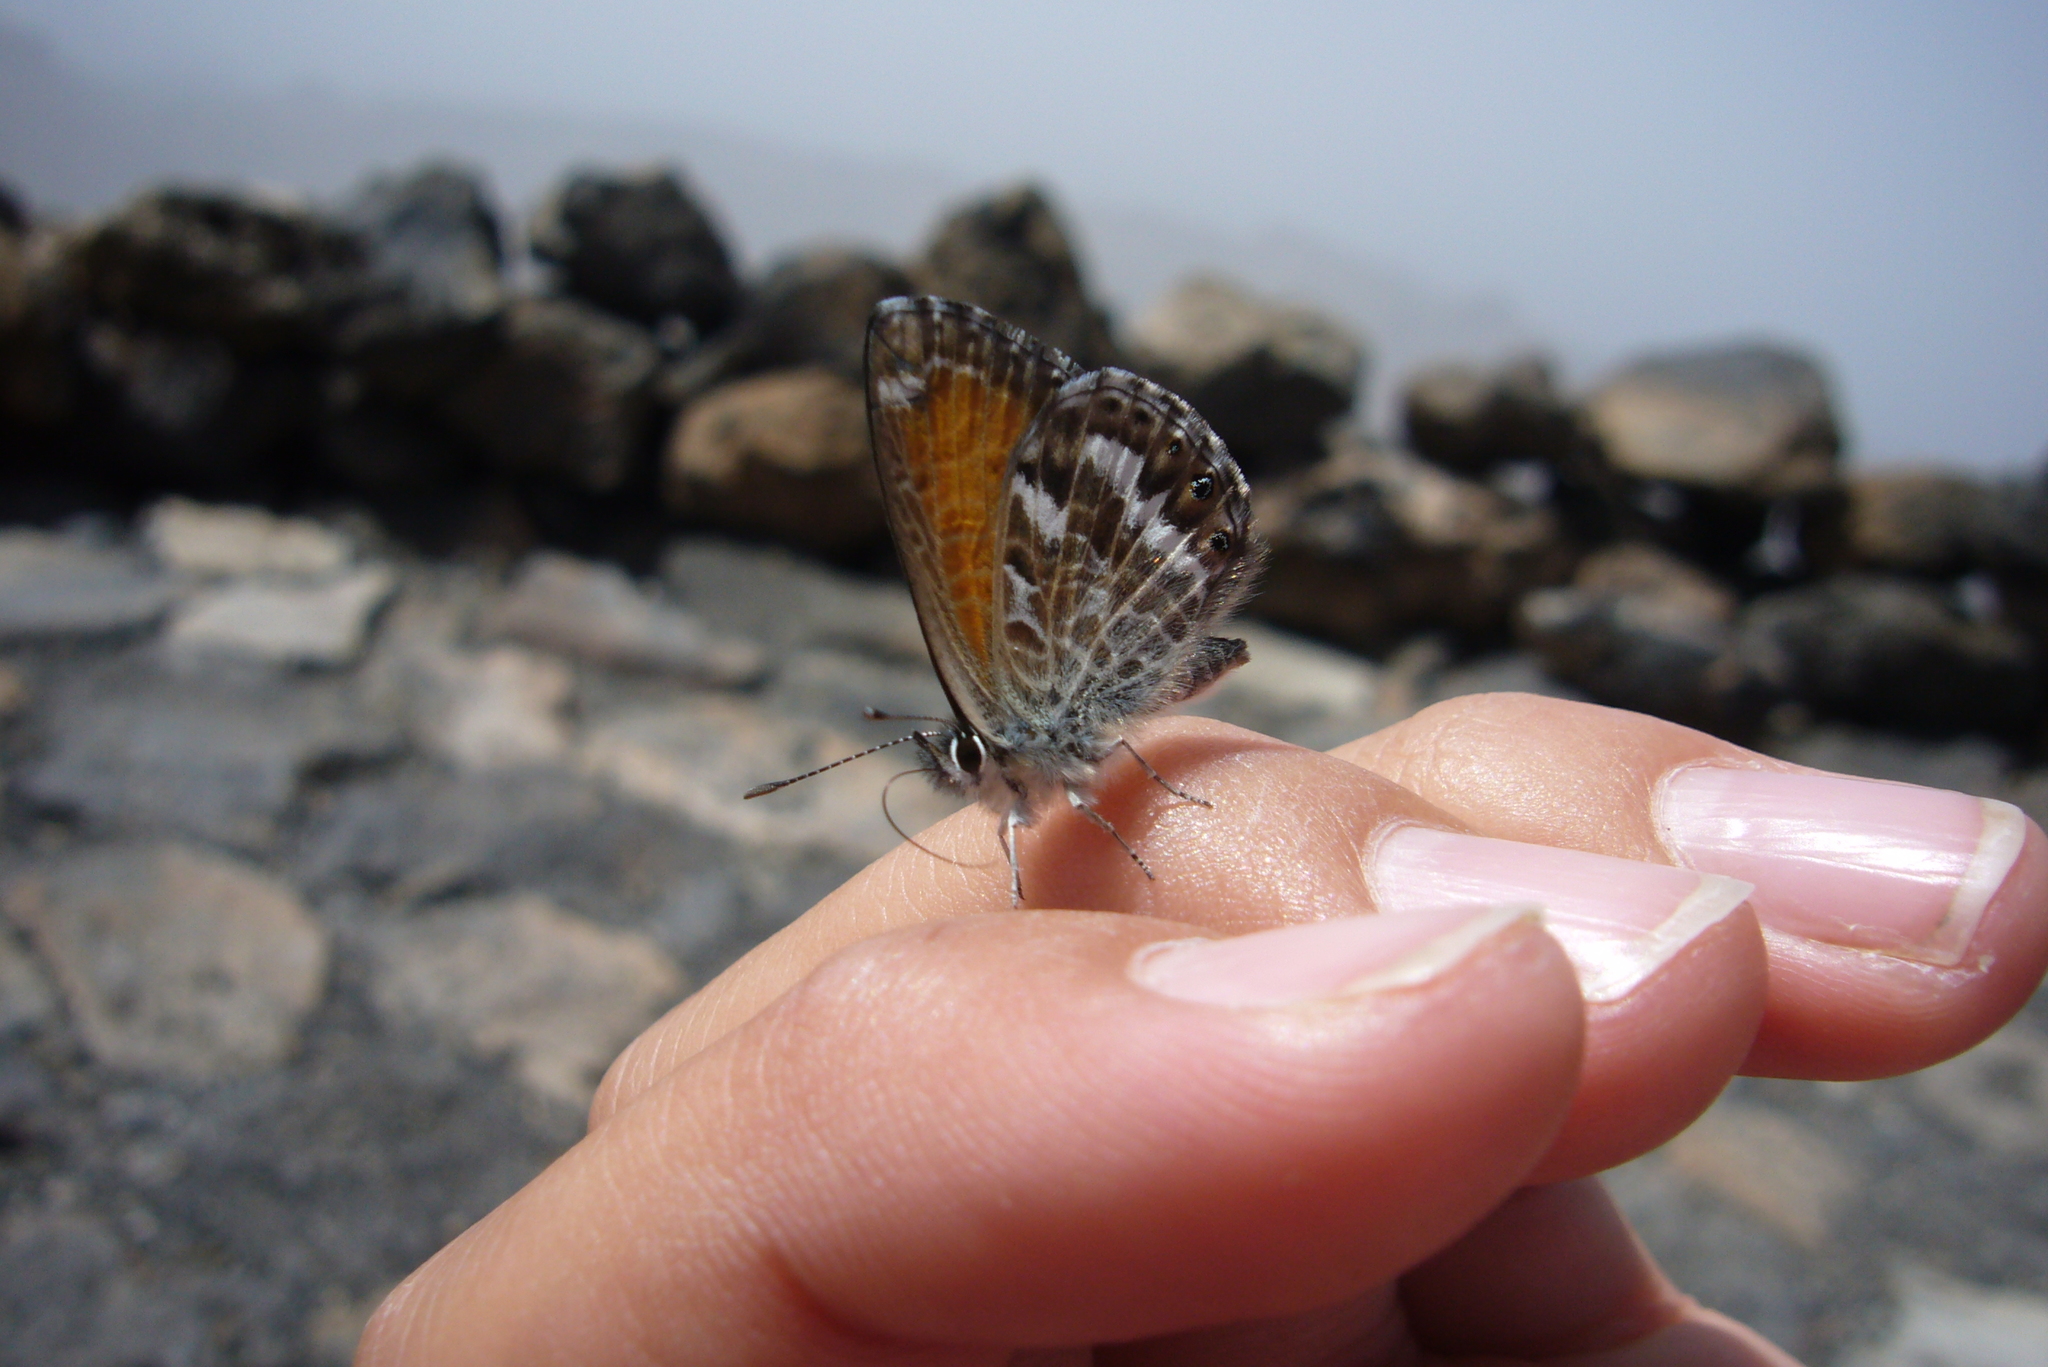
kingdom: Animalia
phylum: Arthropoda
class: Insecta
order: Lepidoptera
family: Lycaenidae
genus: Cyclyrius
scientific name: Cyclyrius webbianus
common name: Canary blue
